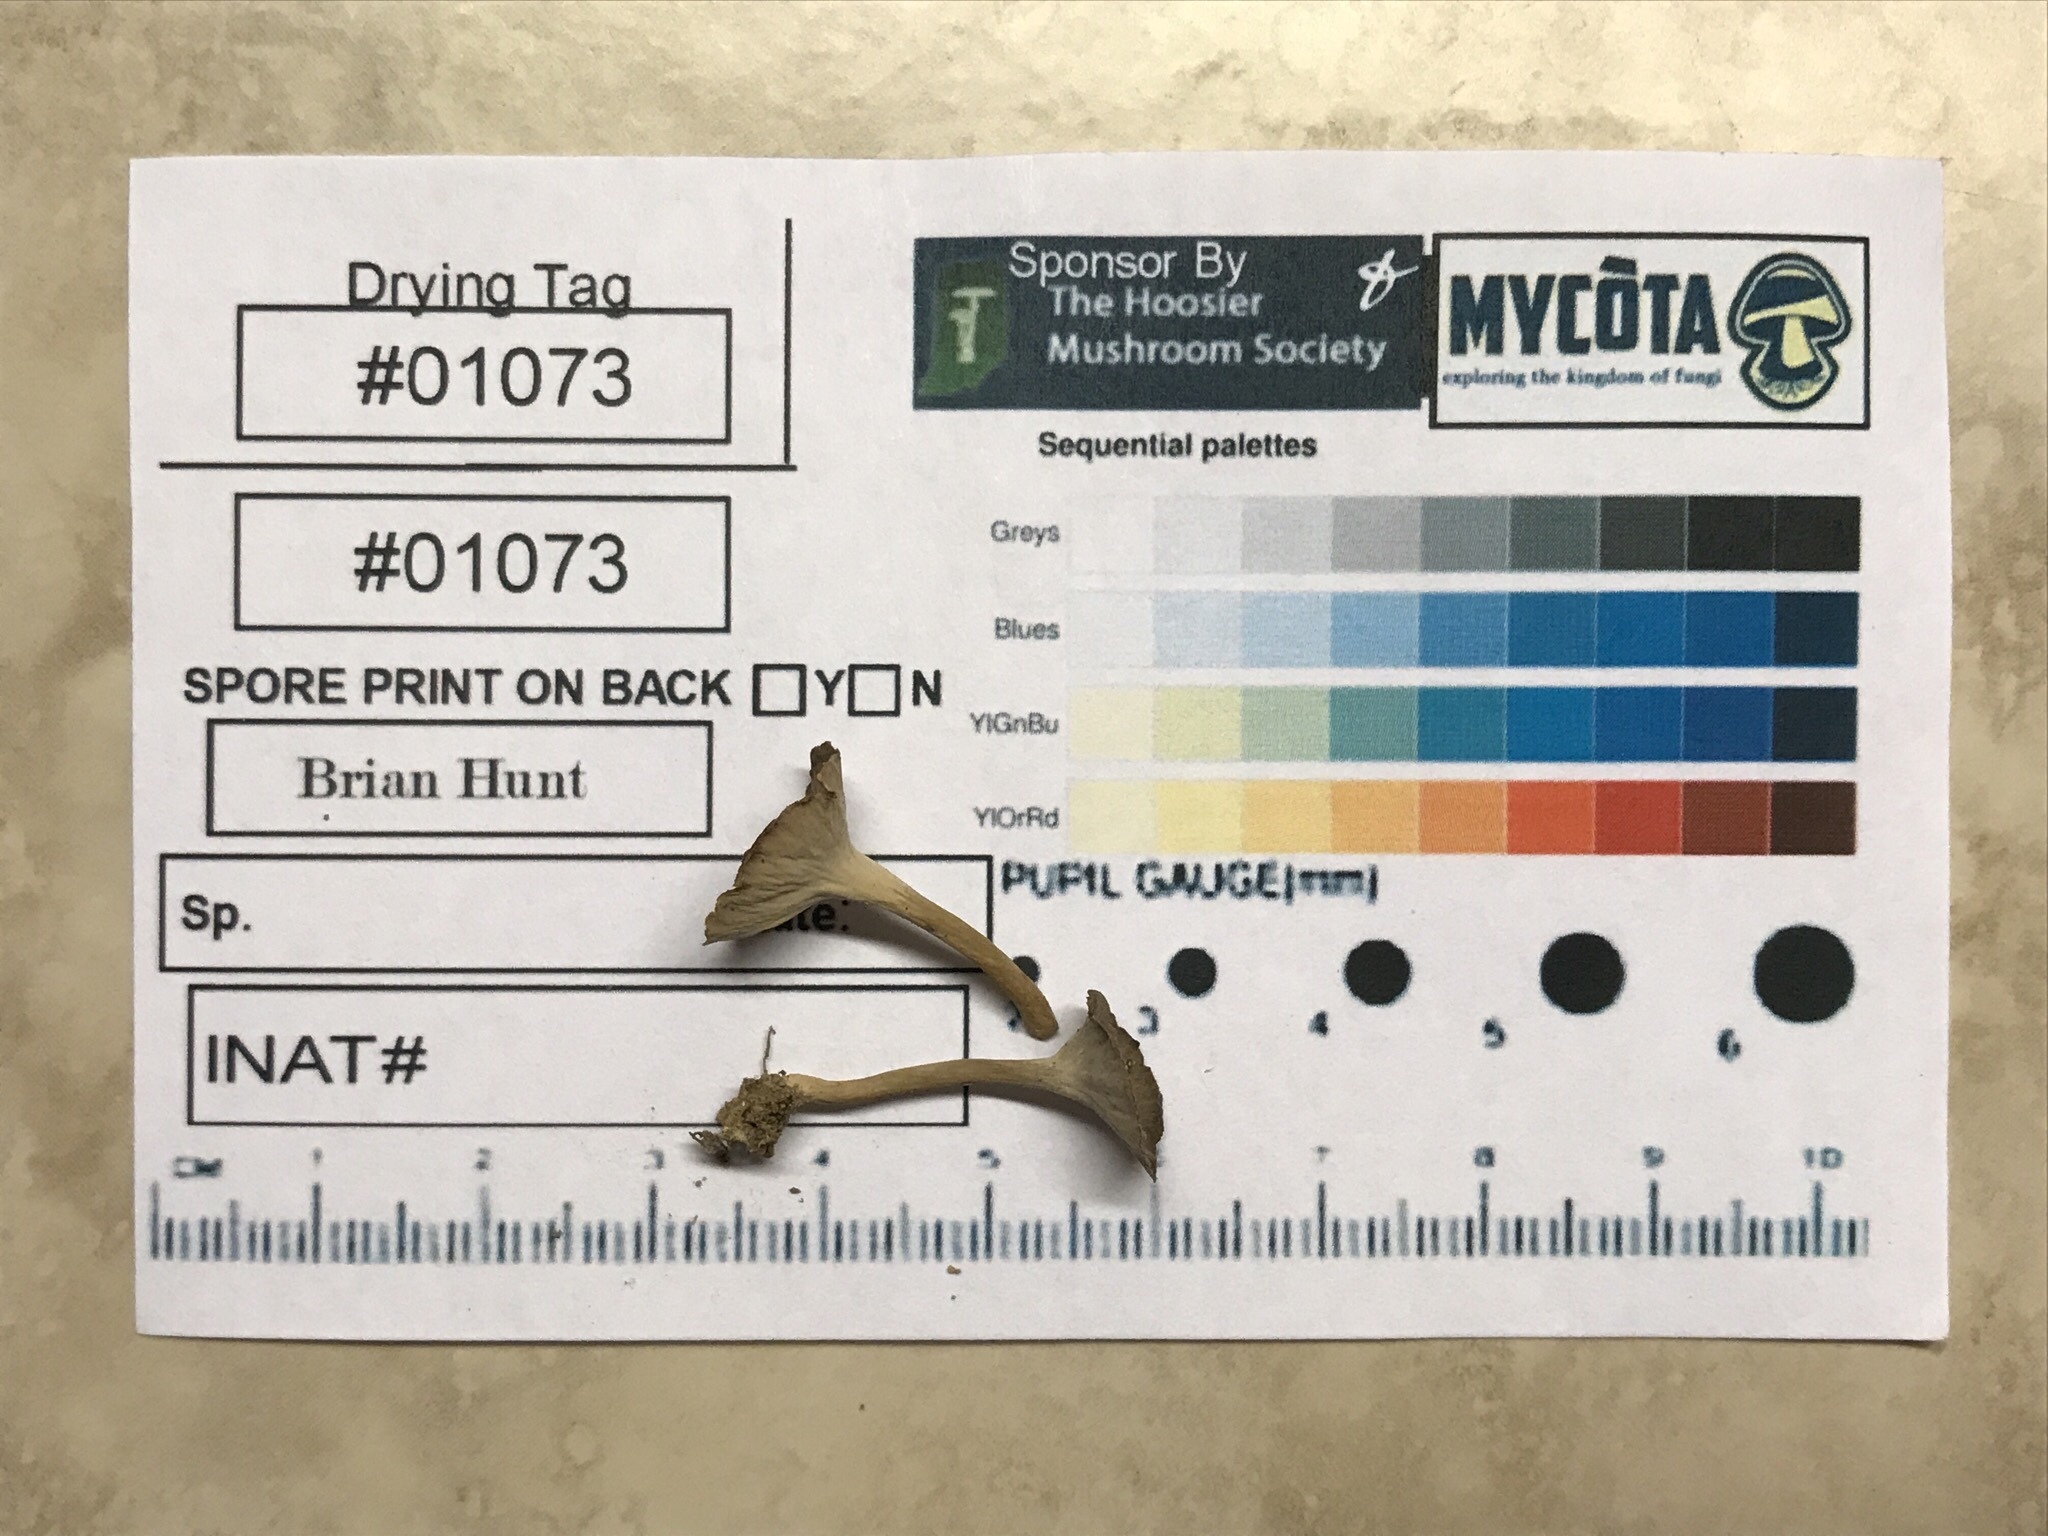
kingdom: Fungi
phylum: Basidiomycota
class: Agaricomycetes
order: Cantharellales
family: Hydnaceae
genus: Pseudocraterellus
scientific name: Pseudocraterellus calyculus
